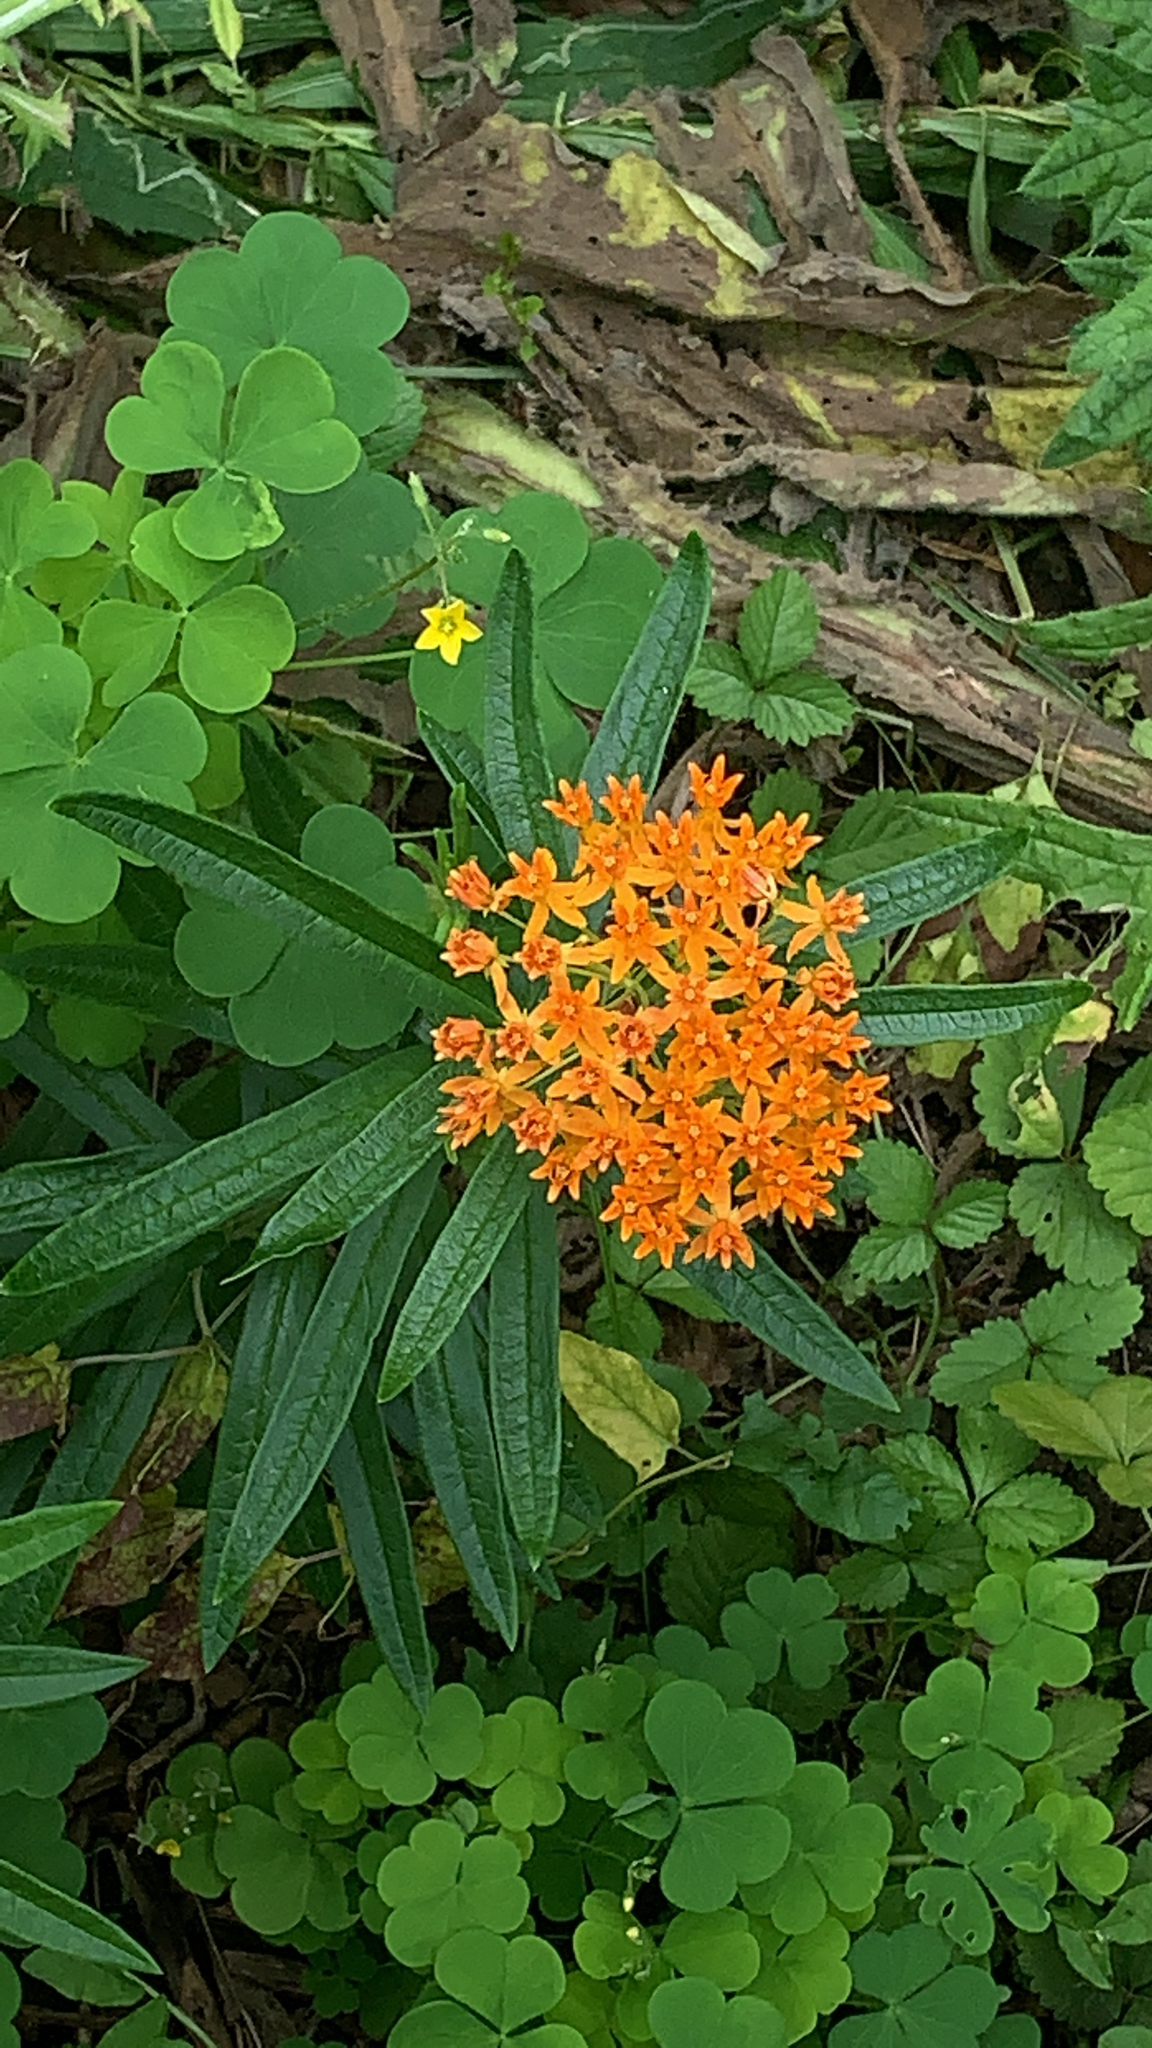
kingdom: Plantae
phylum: Tracheophyta
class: Magnoliopsida
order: Gentianales
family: Apocynaceae
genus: Asclepias
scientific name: Asclepias tuberosa
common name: Butterfly milkweed
